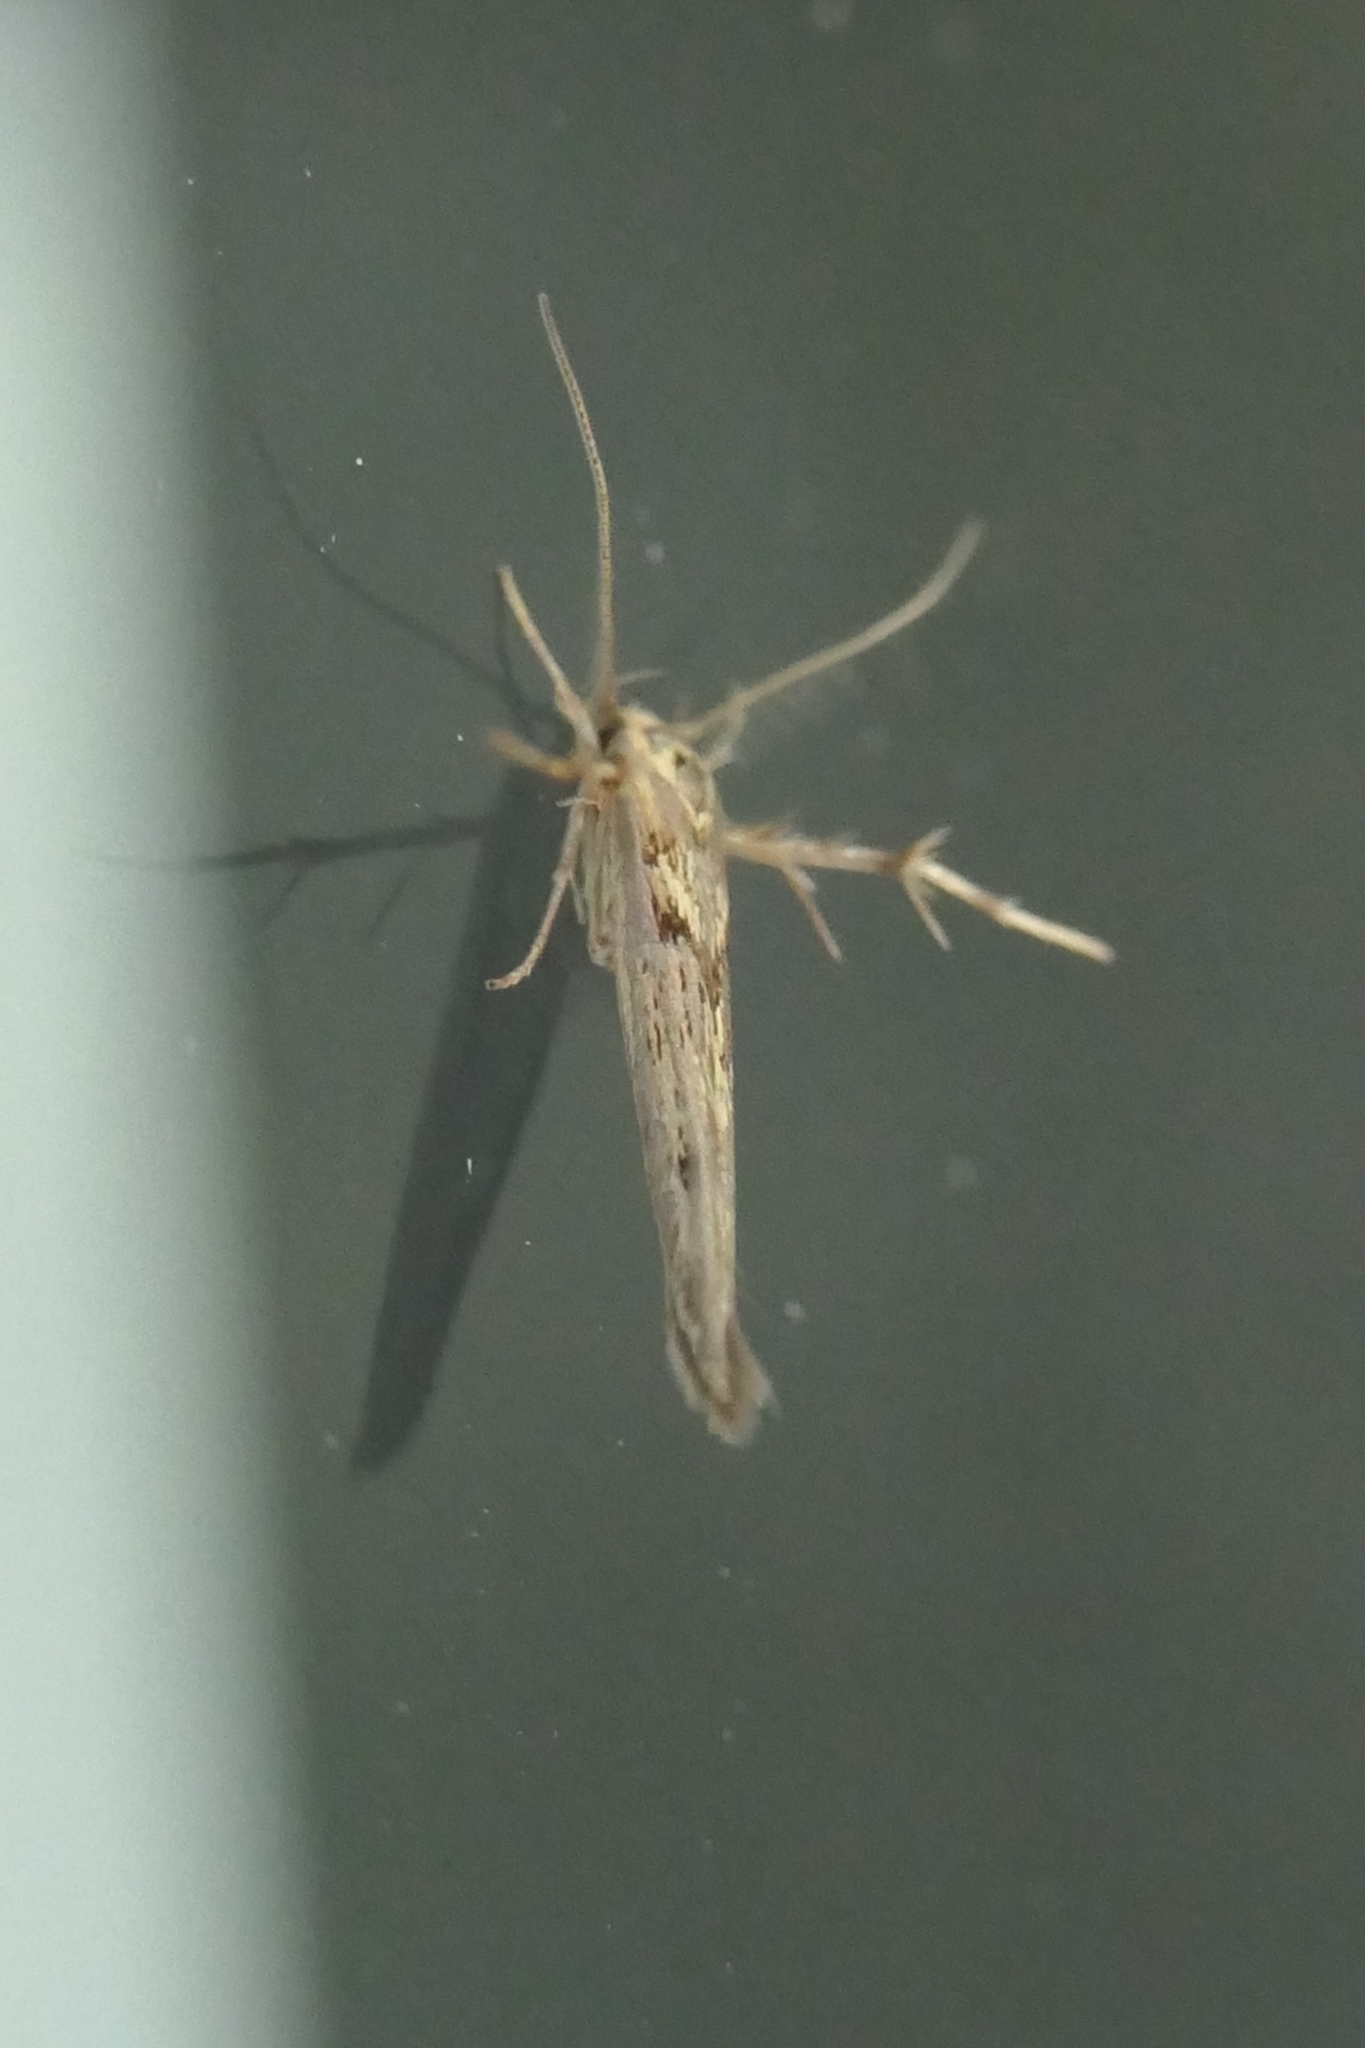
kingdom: Animalia
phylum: Arthropoda
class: Insecta
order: Lepidoptera
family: Stathmopodidae
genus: Stathmopoda
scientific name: Stathmopoda plumbiflua
